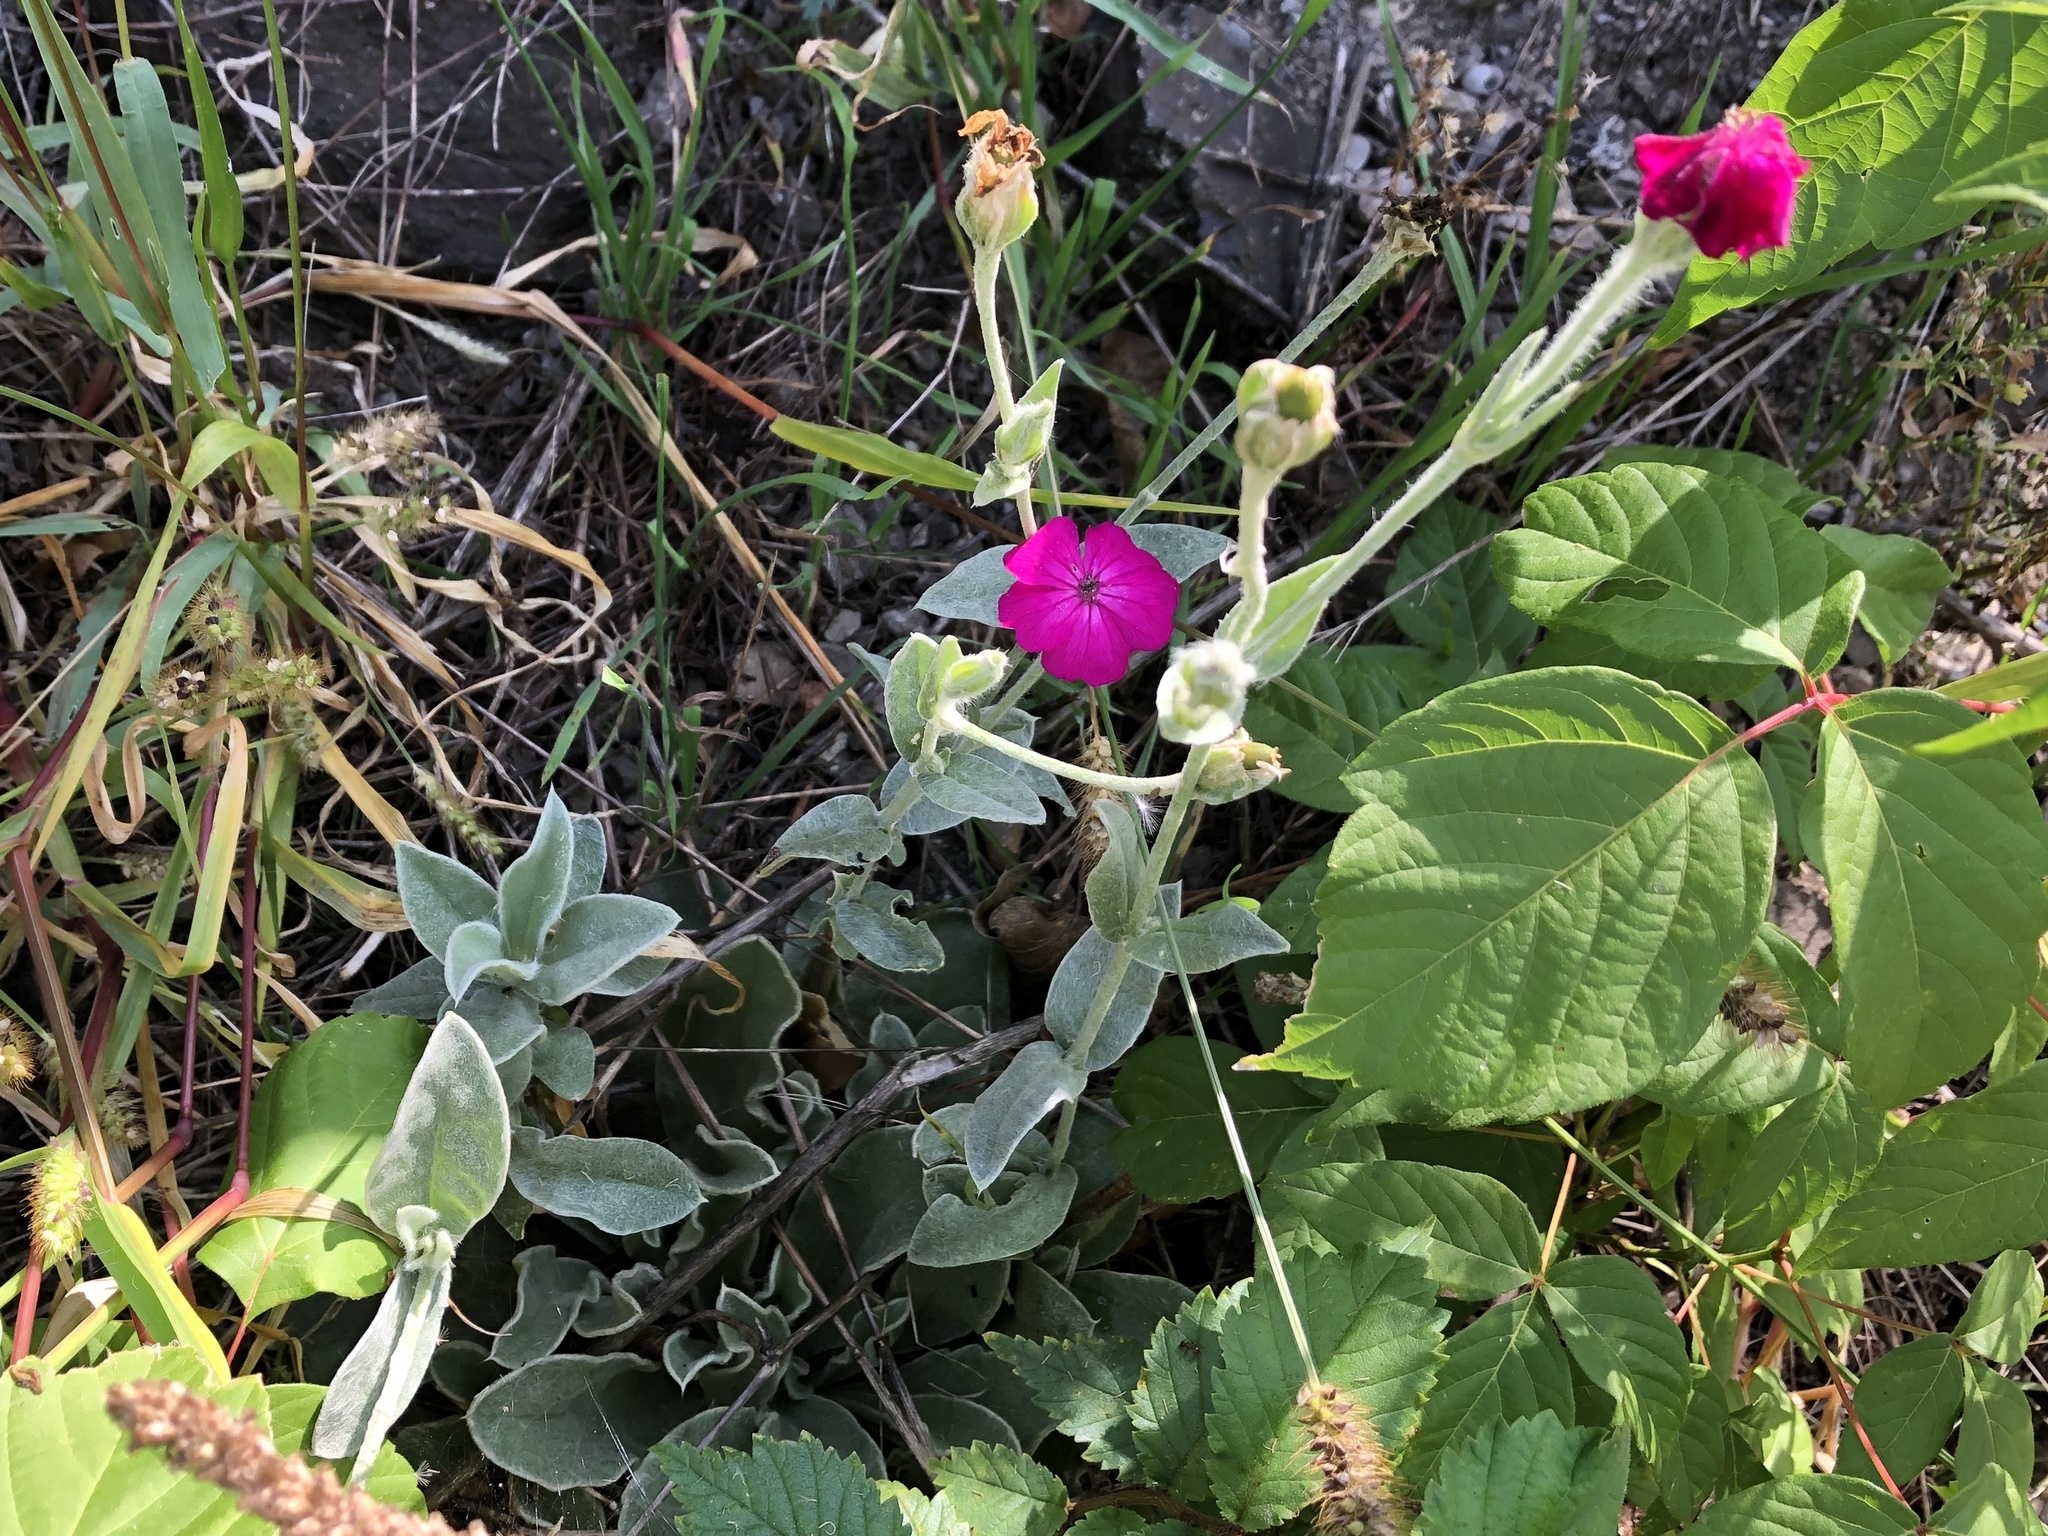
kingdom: Plantae
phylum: Tracheophyta
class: Magnoliopsida
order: Caryophyllales
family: Caryophyllaceae
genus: Silene
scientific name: Silene coronaria
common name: Rose campion
